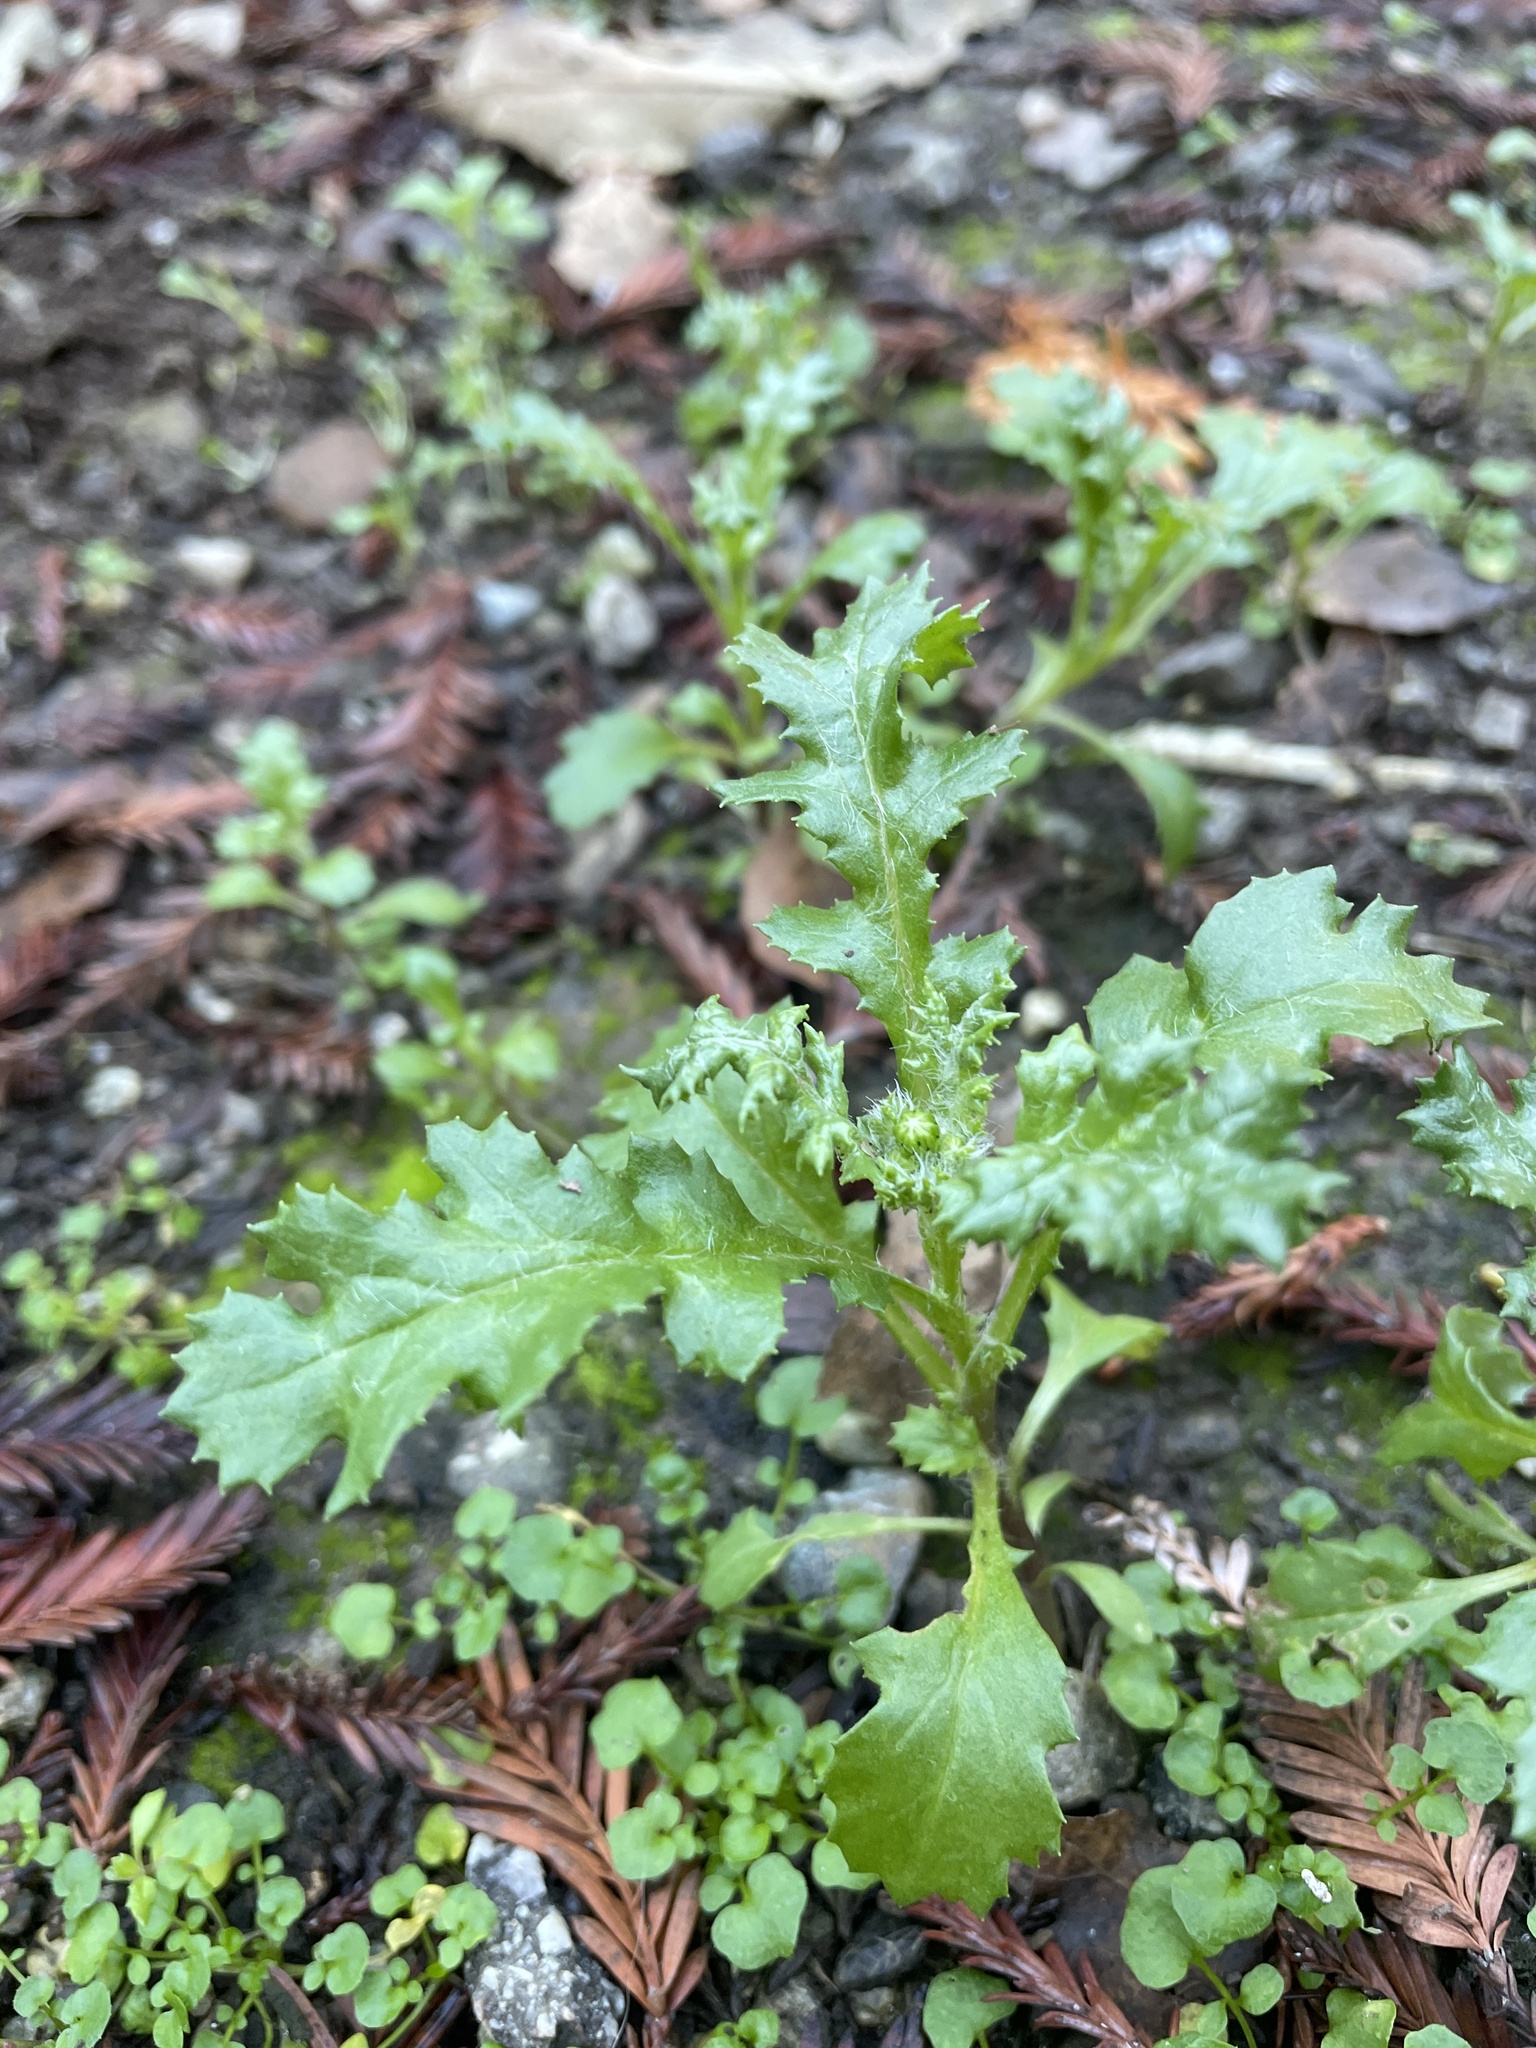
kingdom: Plantae
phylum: Tracheophyta
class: Magnoliopsida
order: Asterales
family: Asteraceae
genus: Senecio
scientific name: Senecio vulgaris
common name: Old-man-in-the-spring
